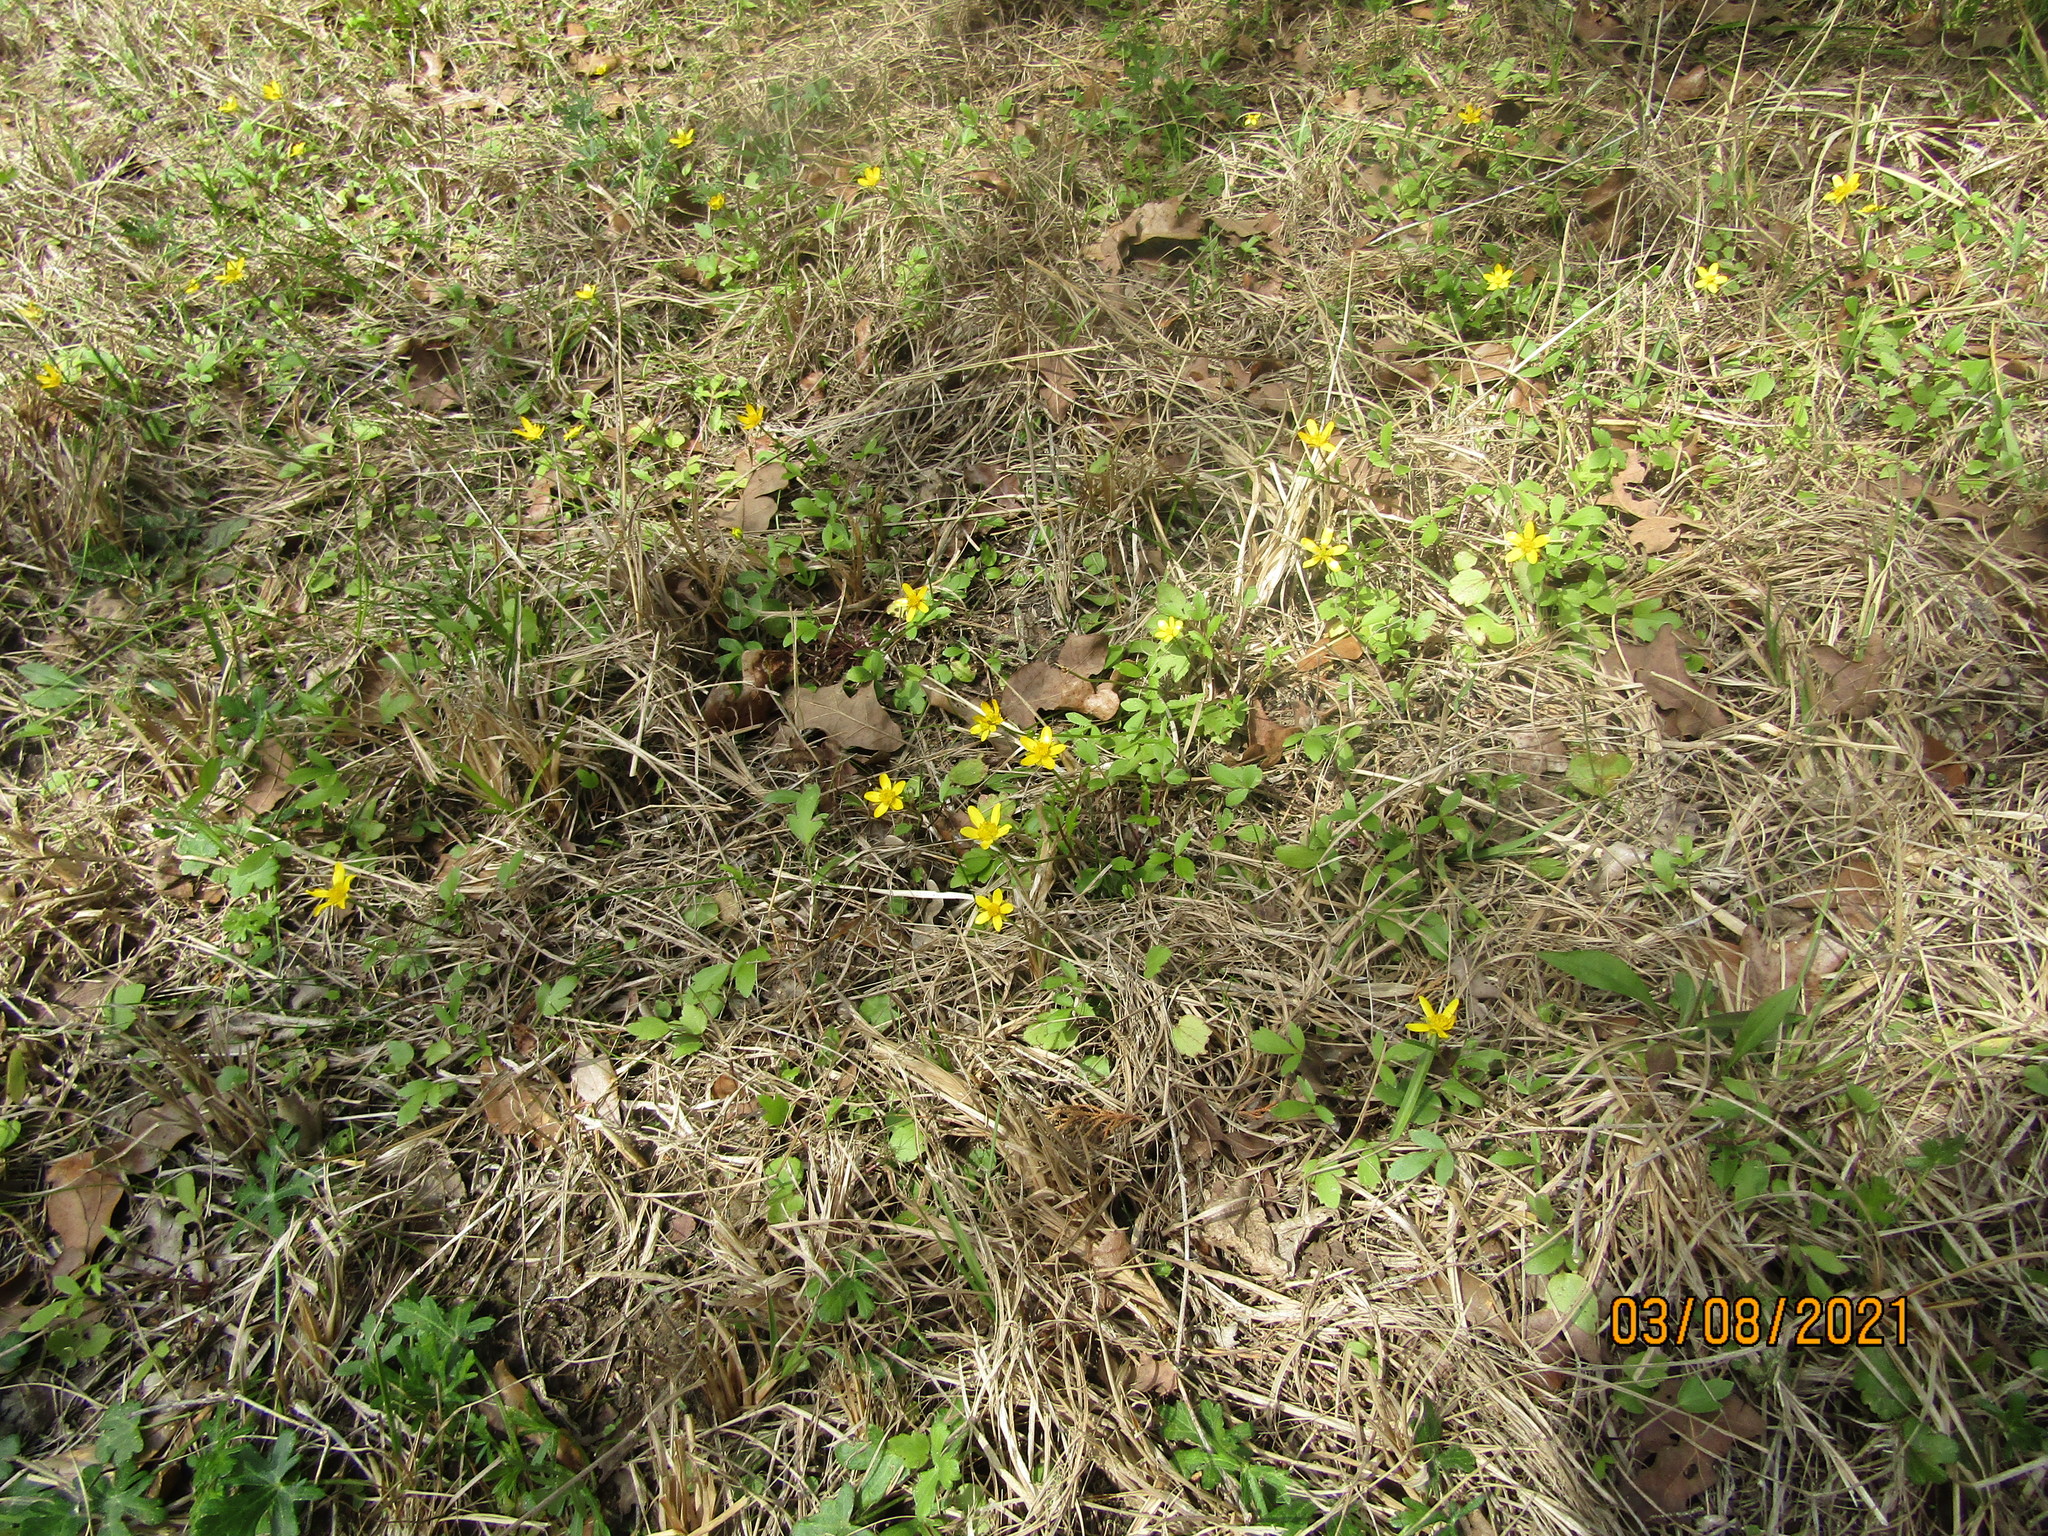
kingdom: Plantae
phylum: Tracheophyta
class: Magnoliopsida
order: Ranunculales
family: Ranunculaceae
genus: Ranunculus
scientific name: Ranunculus fascicularis
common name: Early buttercup
